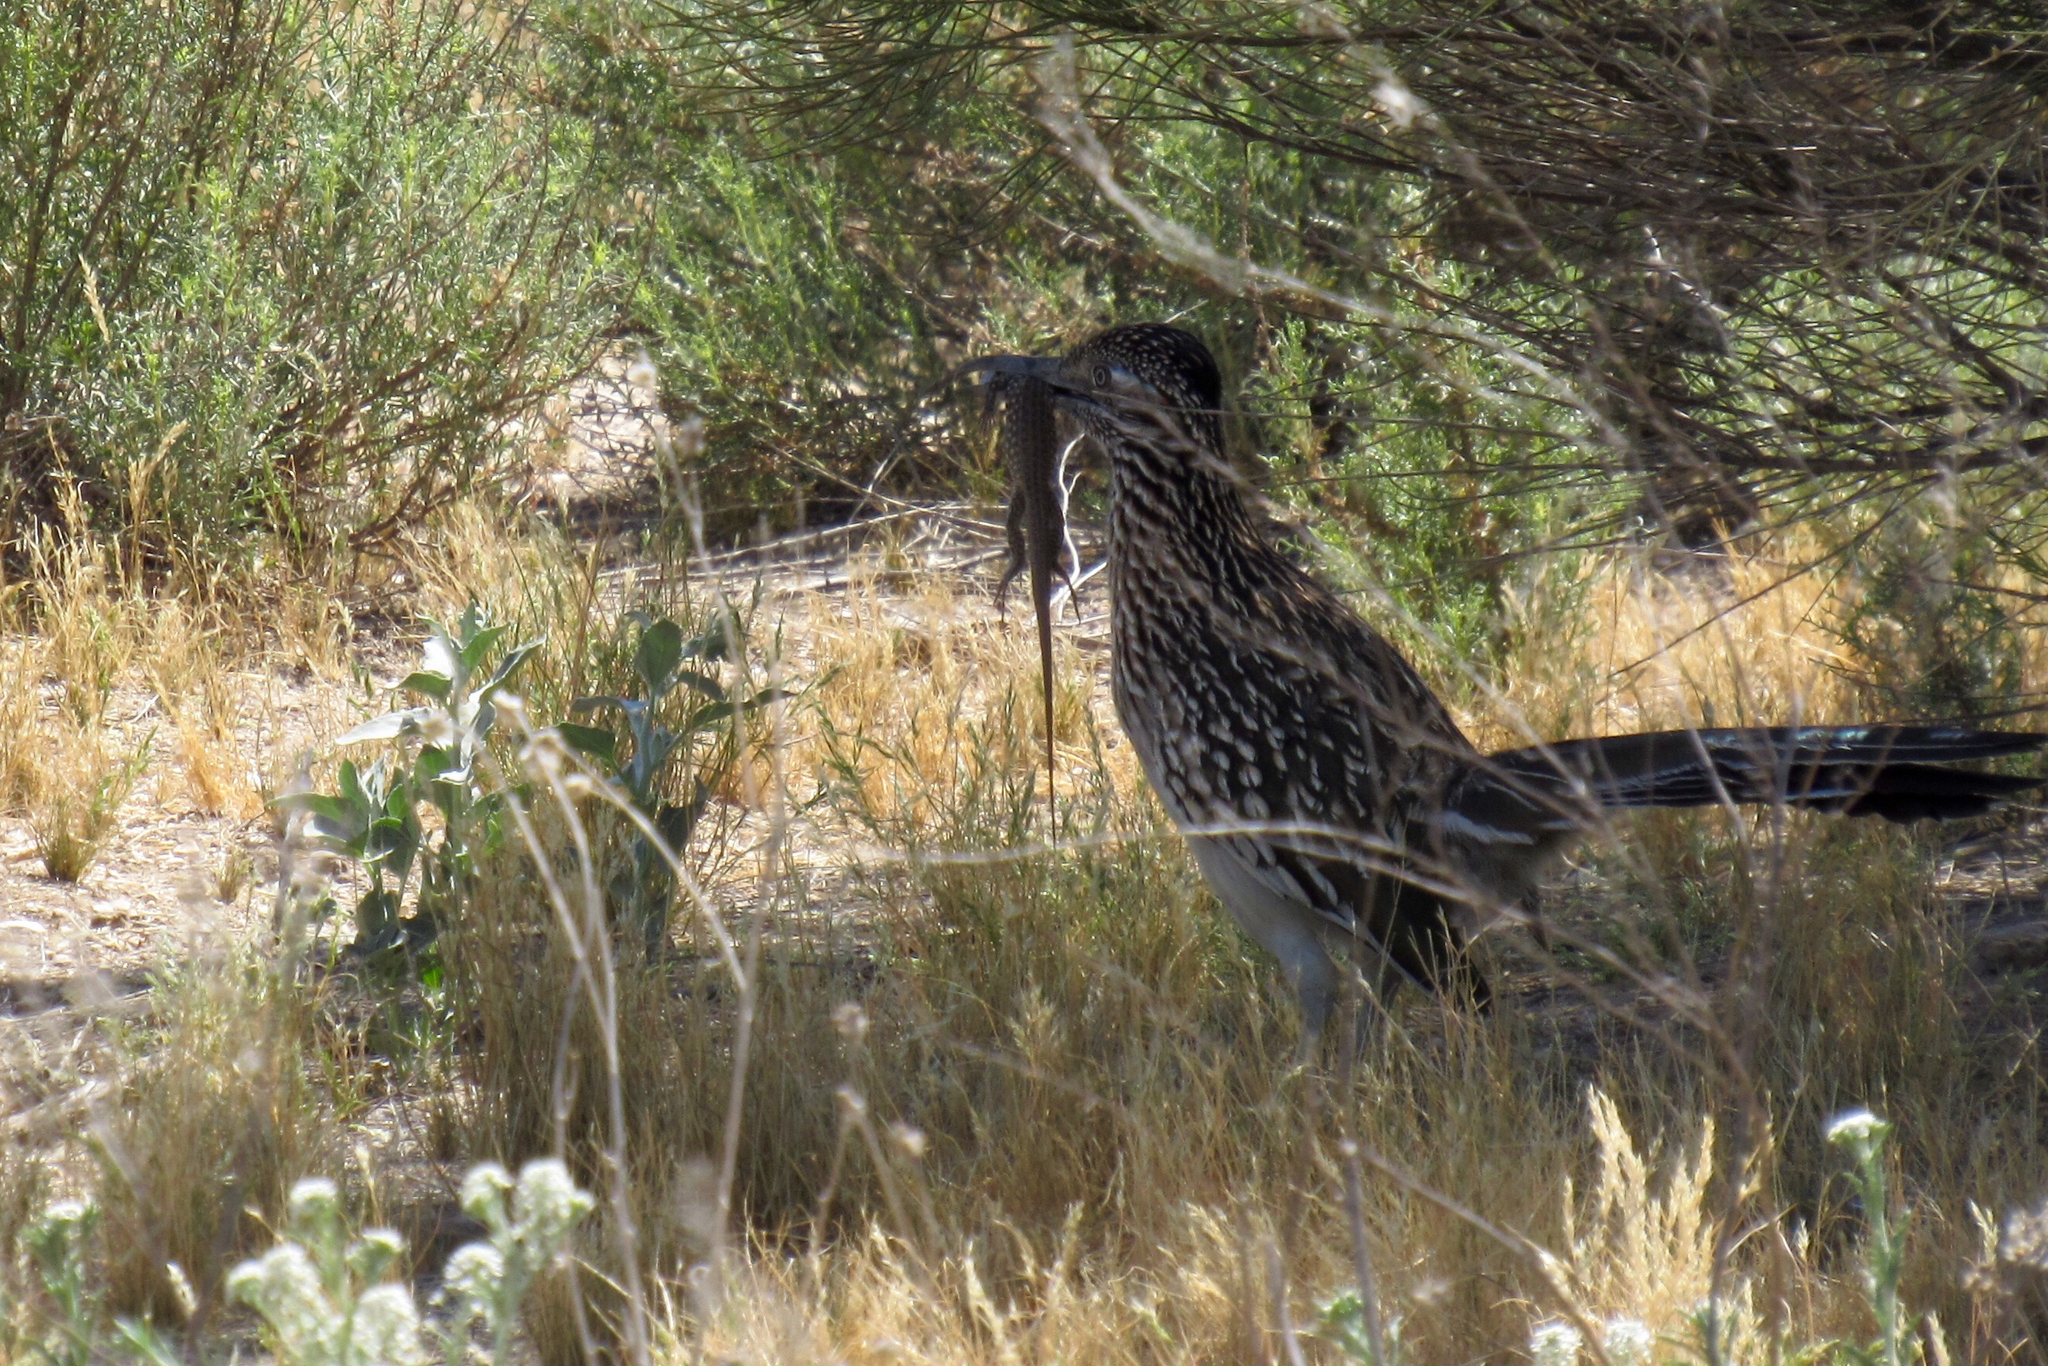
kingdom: Animalia
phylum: Chordata
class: Aves
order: Cuculiformes
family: Cuculidae
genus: Geococcyx
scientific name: Geococcyx californianus
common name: Greater roadrunner
